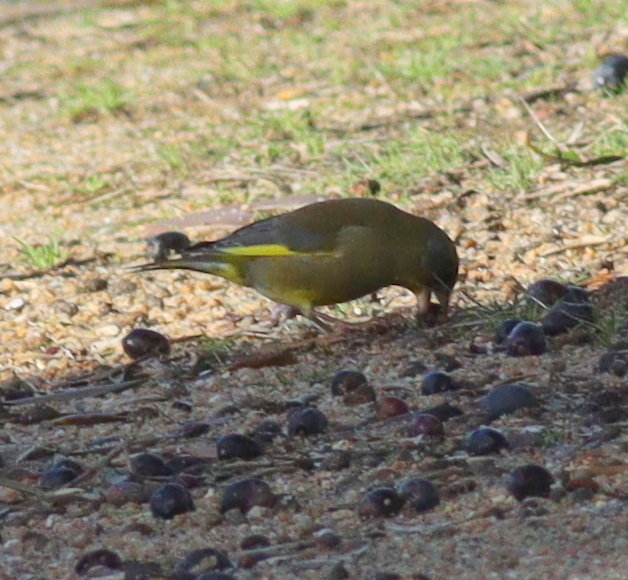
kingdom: Plantae
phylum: Tracheophyta
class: Liliopsida
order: Poales
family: Poaceae
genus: Chloris
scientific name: Chloris chloris
